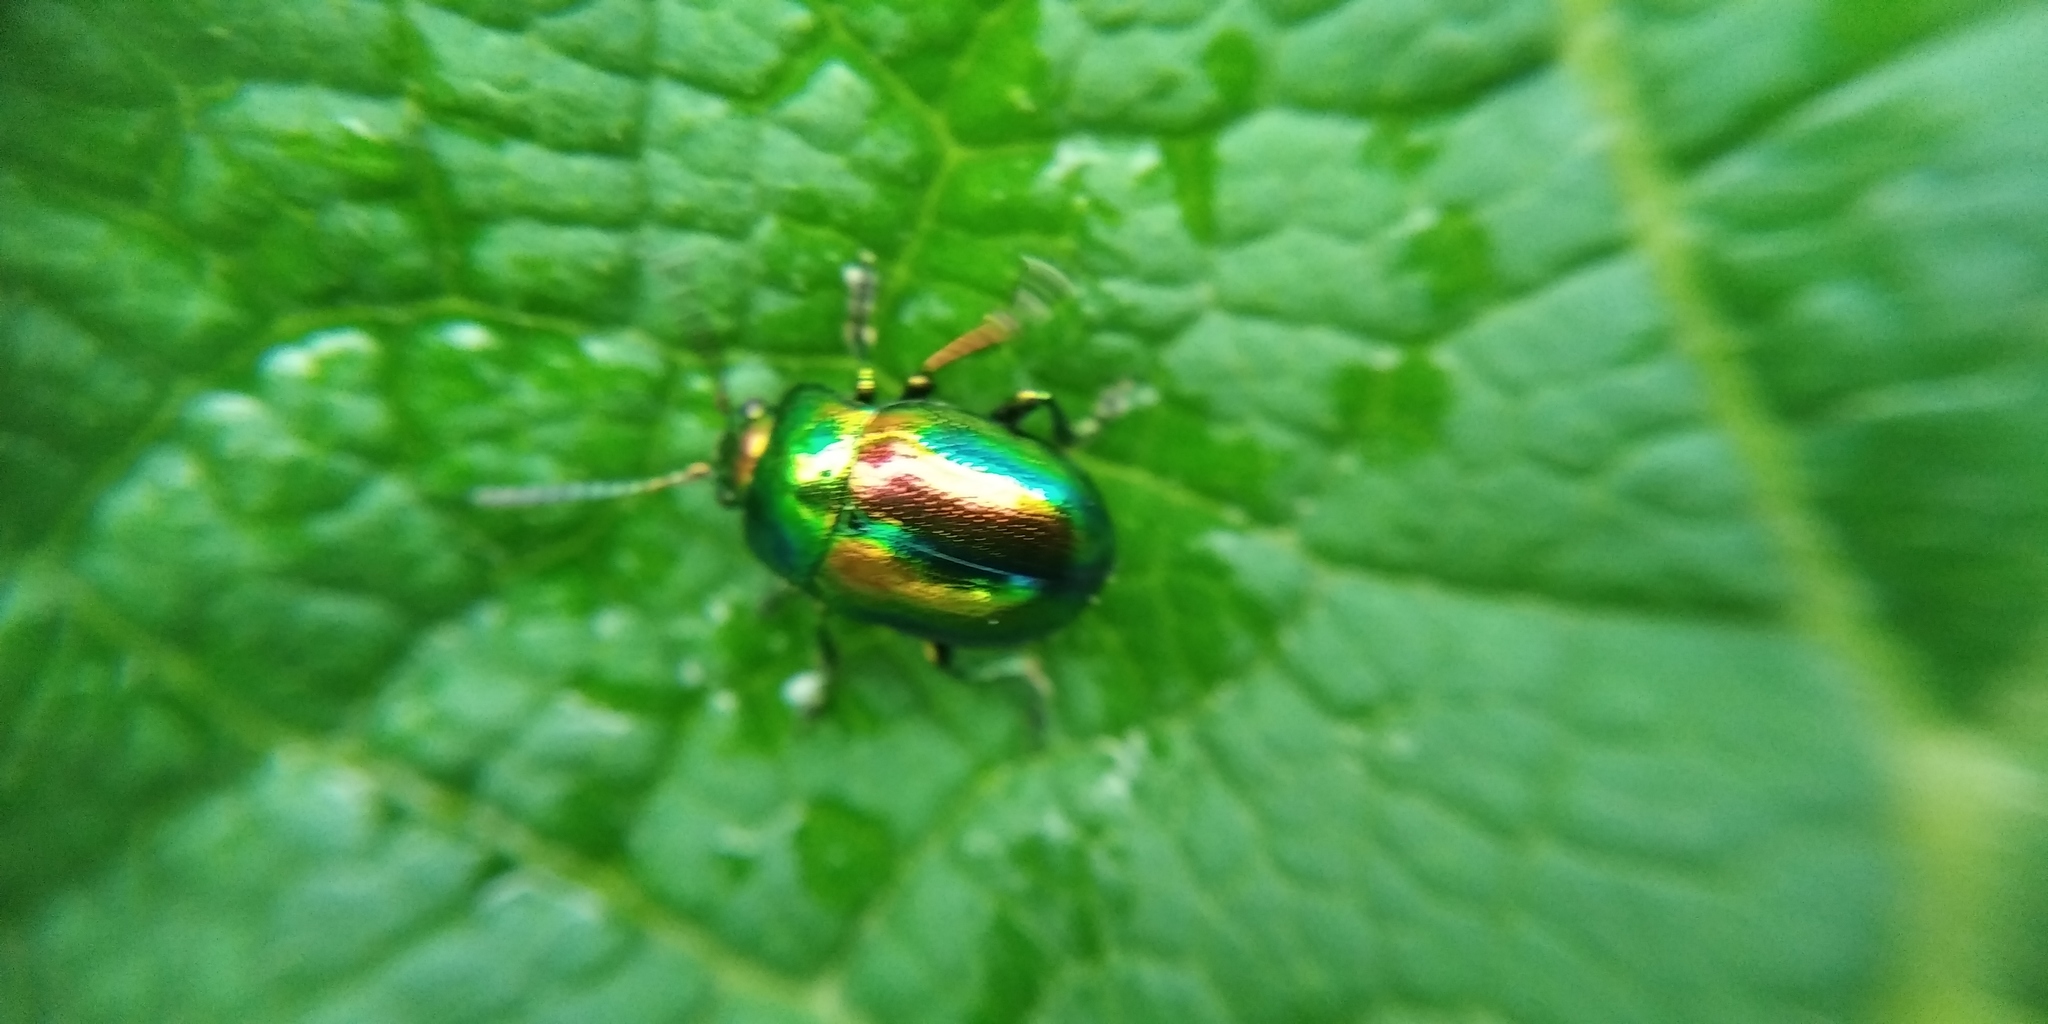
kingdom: Animalia
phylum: Arthropoda
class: Insecta
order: Coleoptera
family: Chrysomelidae
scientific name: Chrysomelidae
